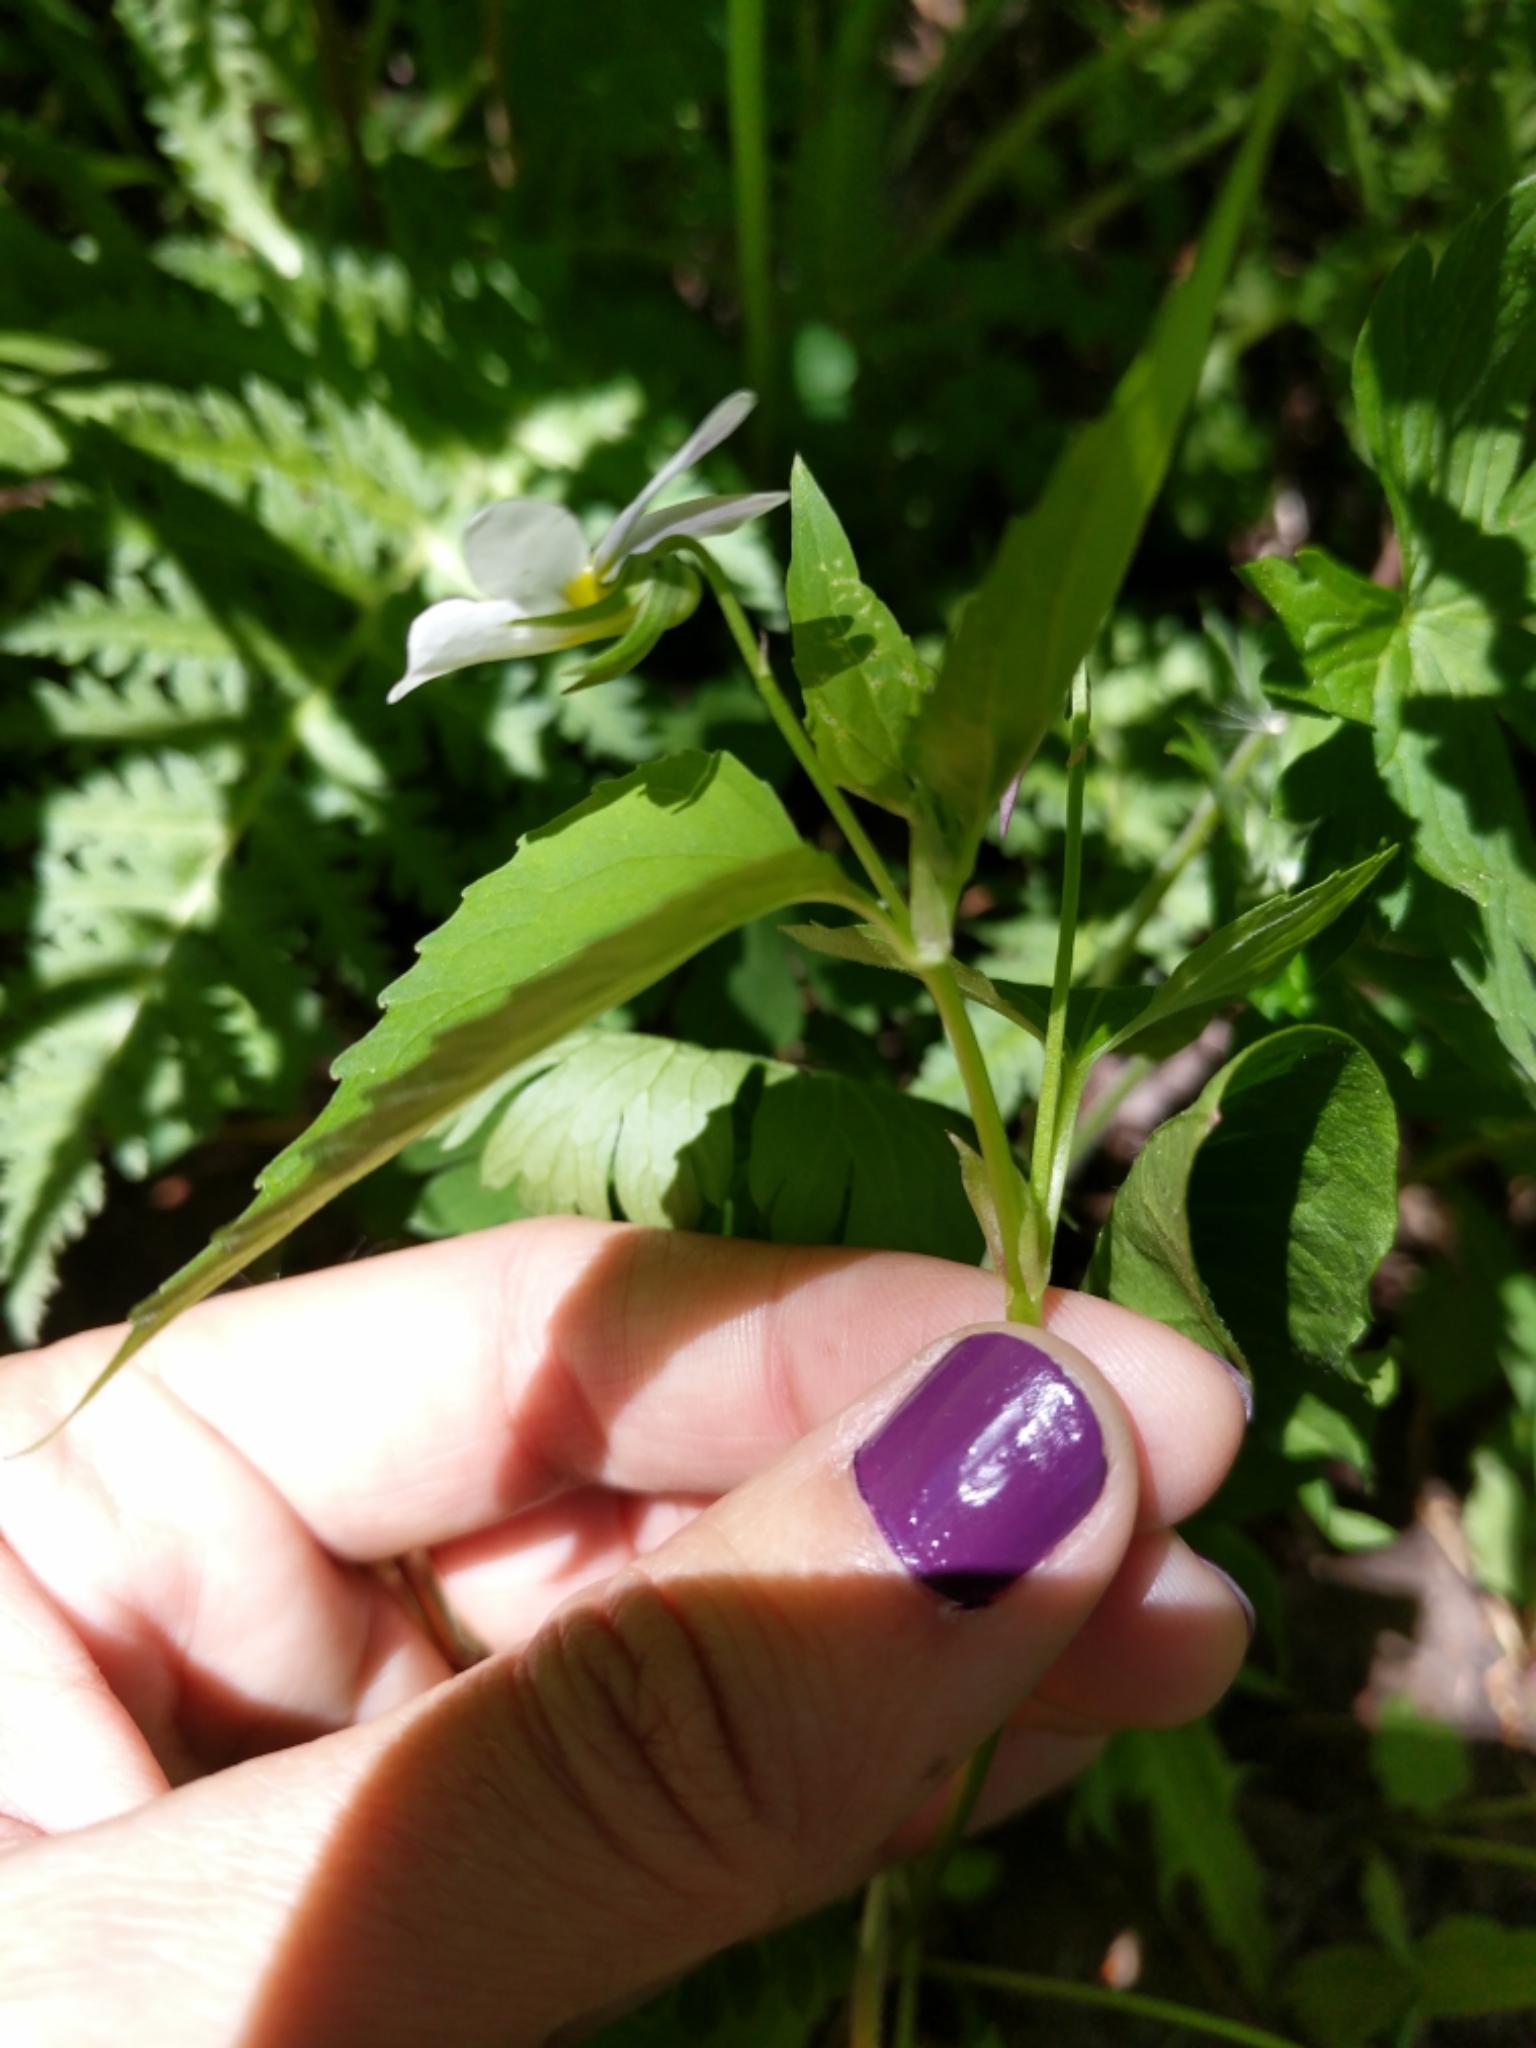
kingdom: Plantae
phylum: Tracheophyta
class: Magnoliopsida
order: Malpighiales
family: Violaceae
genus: Viola
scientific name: Viola canadensis
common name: Canada violet
